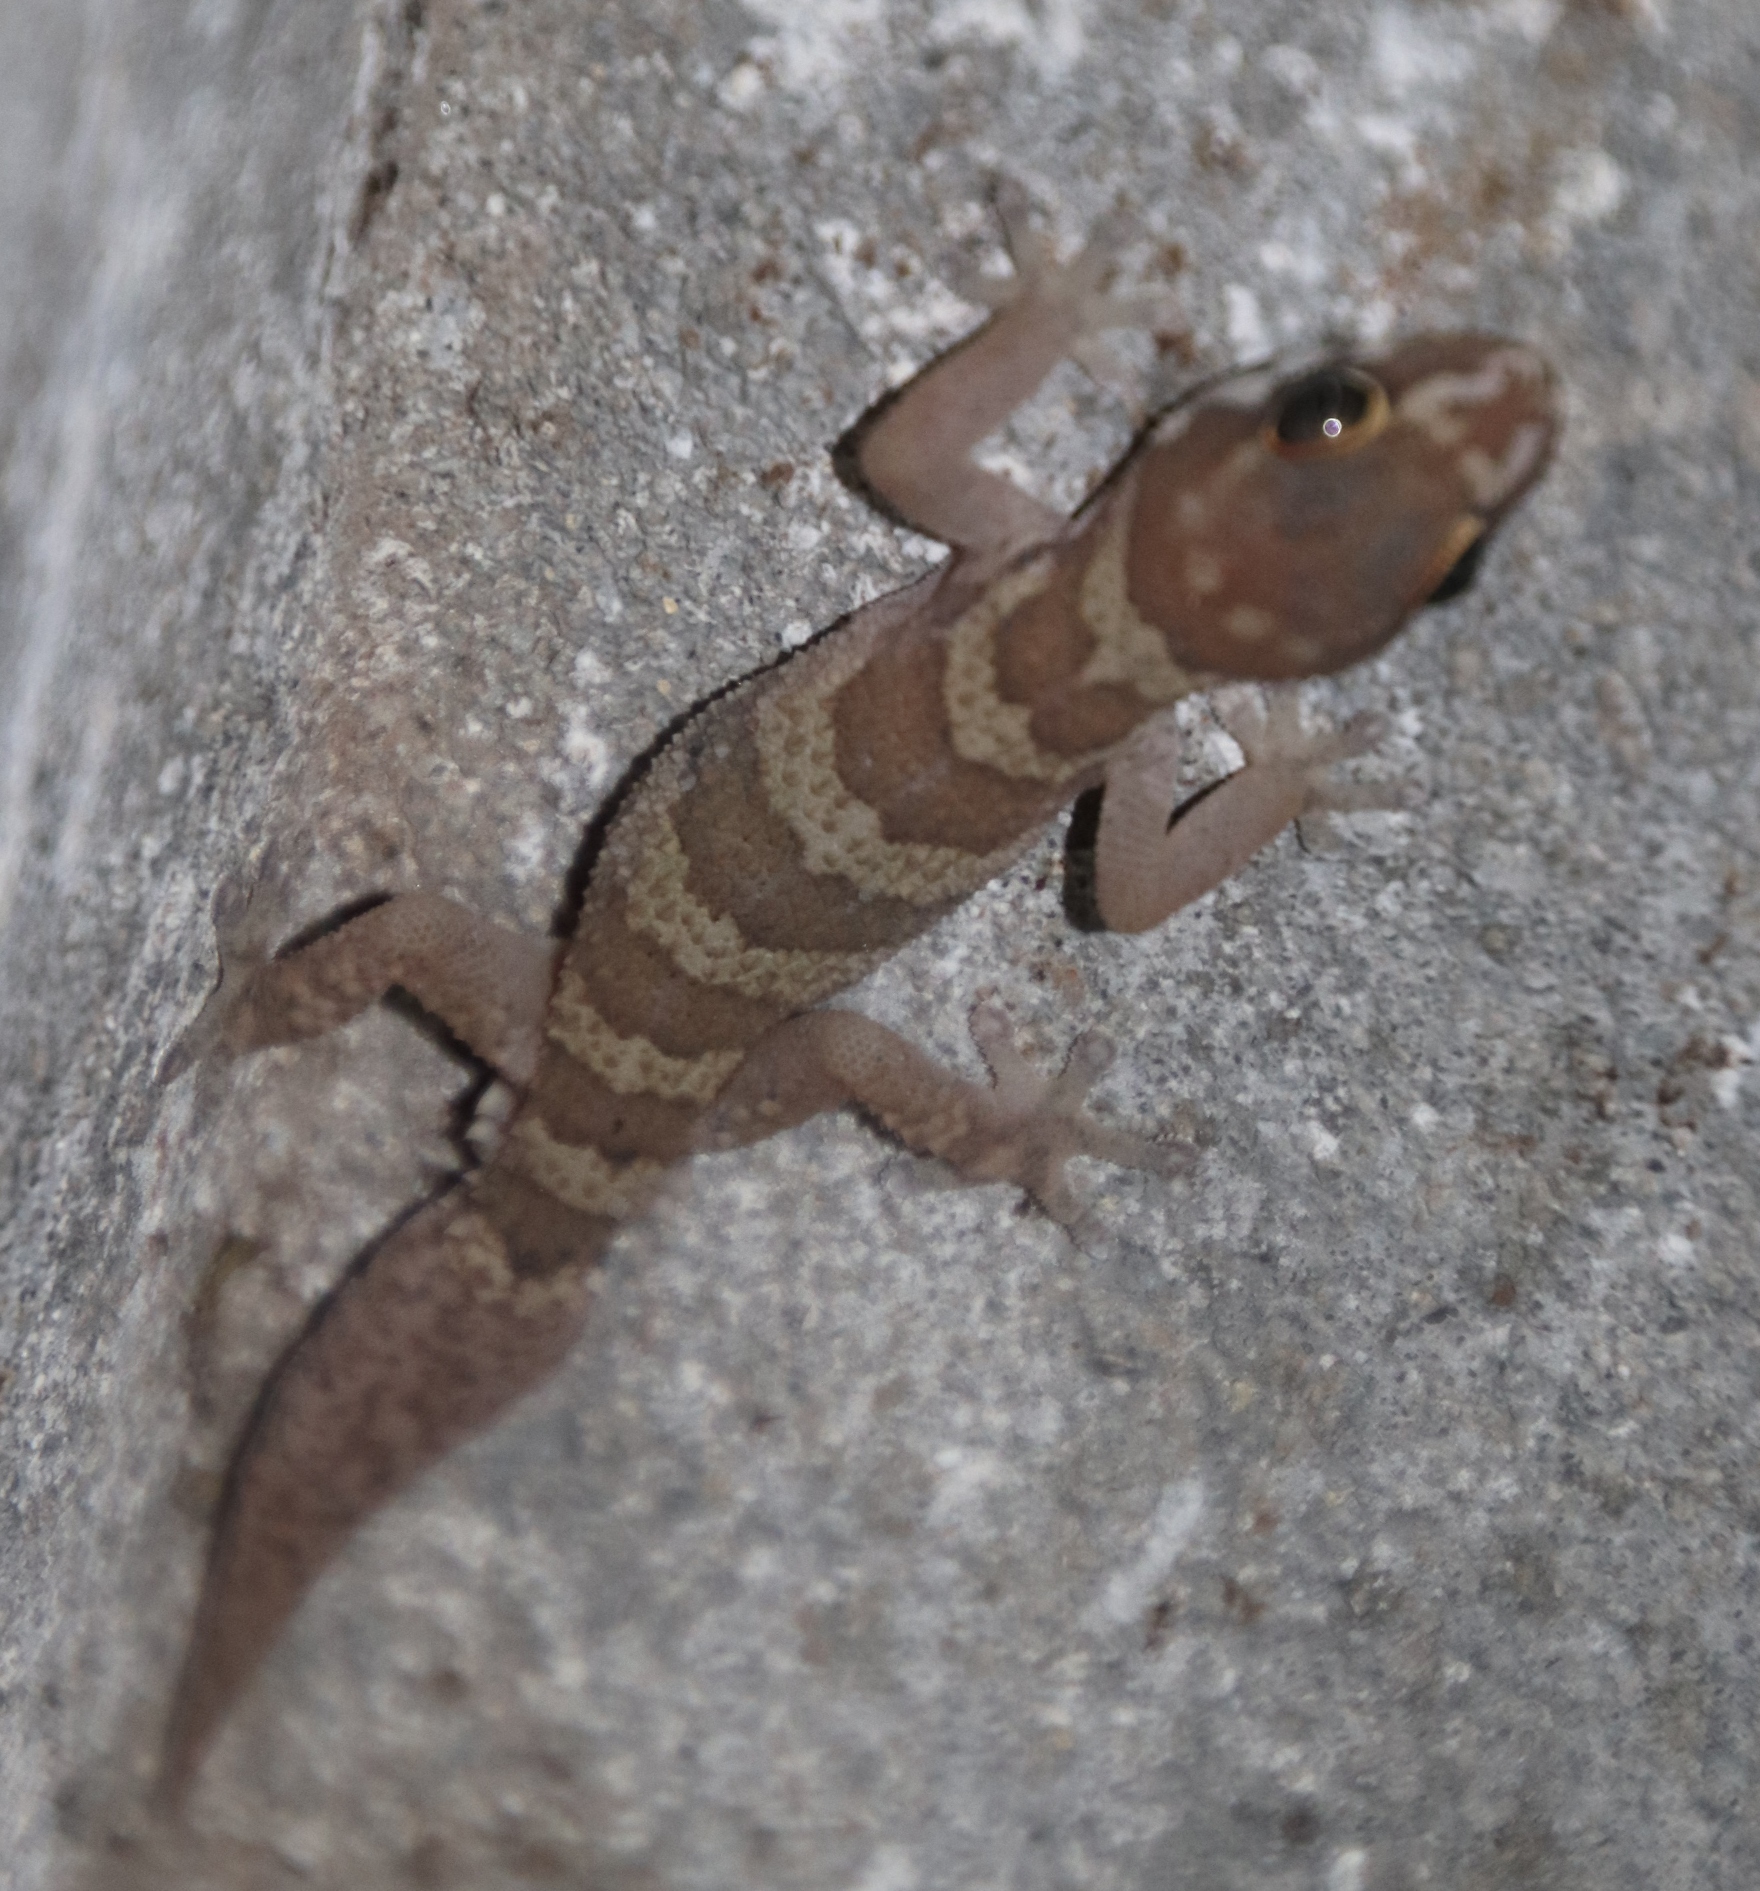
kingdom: Animalia
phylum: Chordata
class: Squamata
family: Gekkonidae
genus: Pachydactylus
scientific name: Pachydactylus formosus
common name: Southern rough gecko
